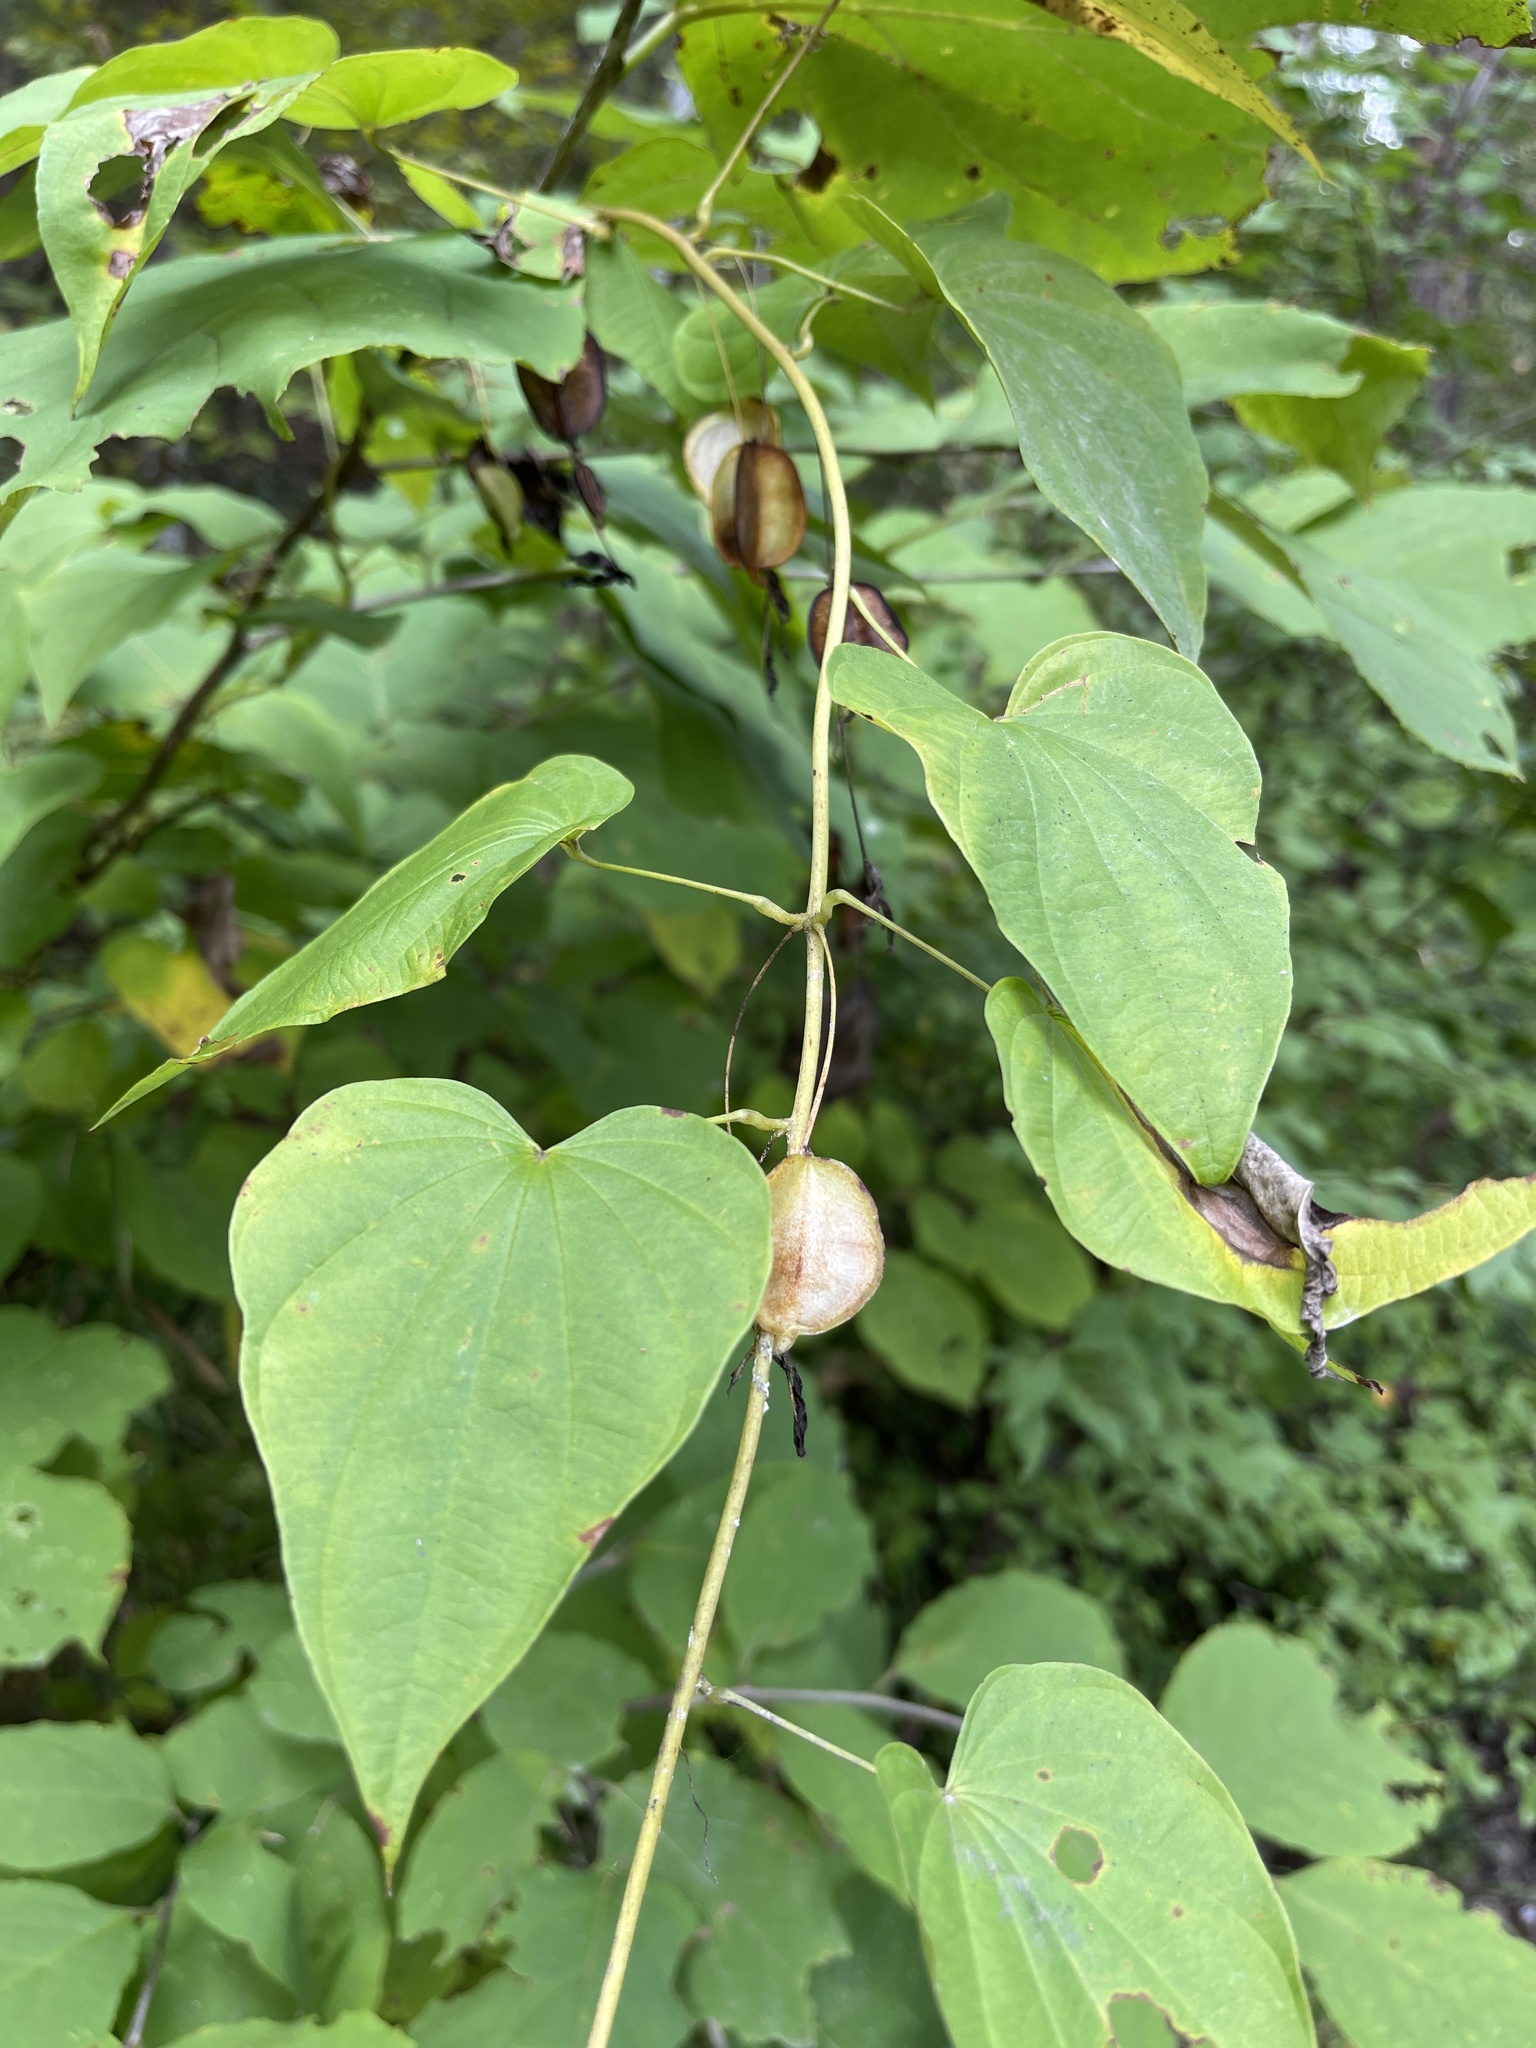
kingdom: Plantae
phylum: Tracheophyta
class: Liliopsida
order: Dioscoreales
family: Dioscoreaceae
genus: Dioscorea
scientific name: Dioscorea villosa
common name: Wild yam
